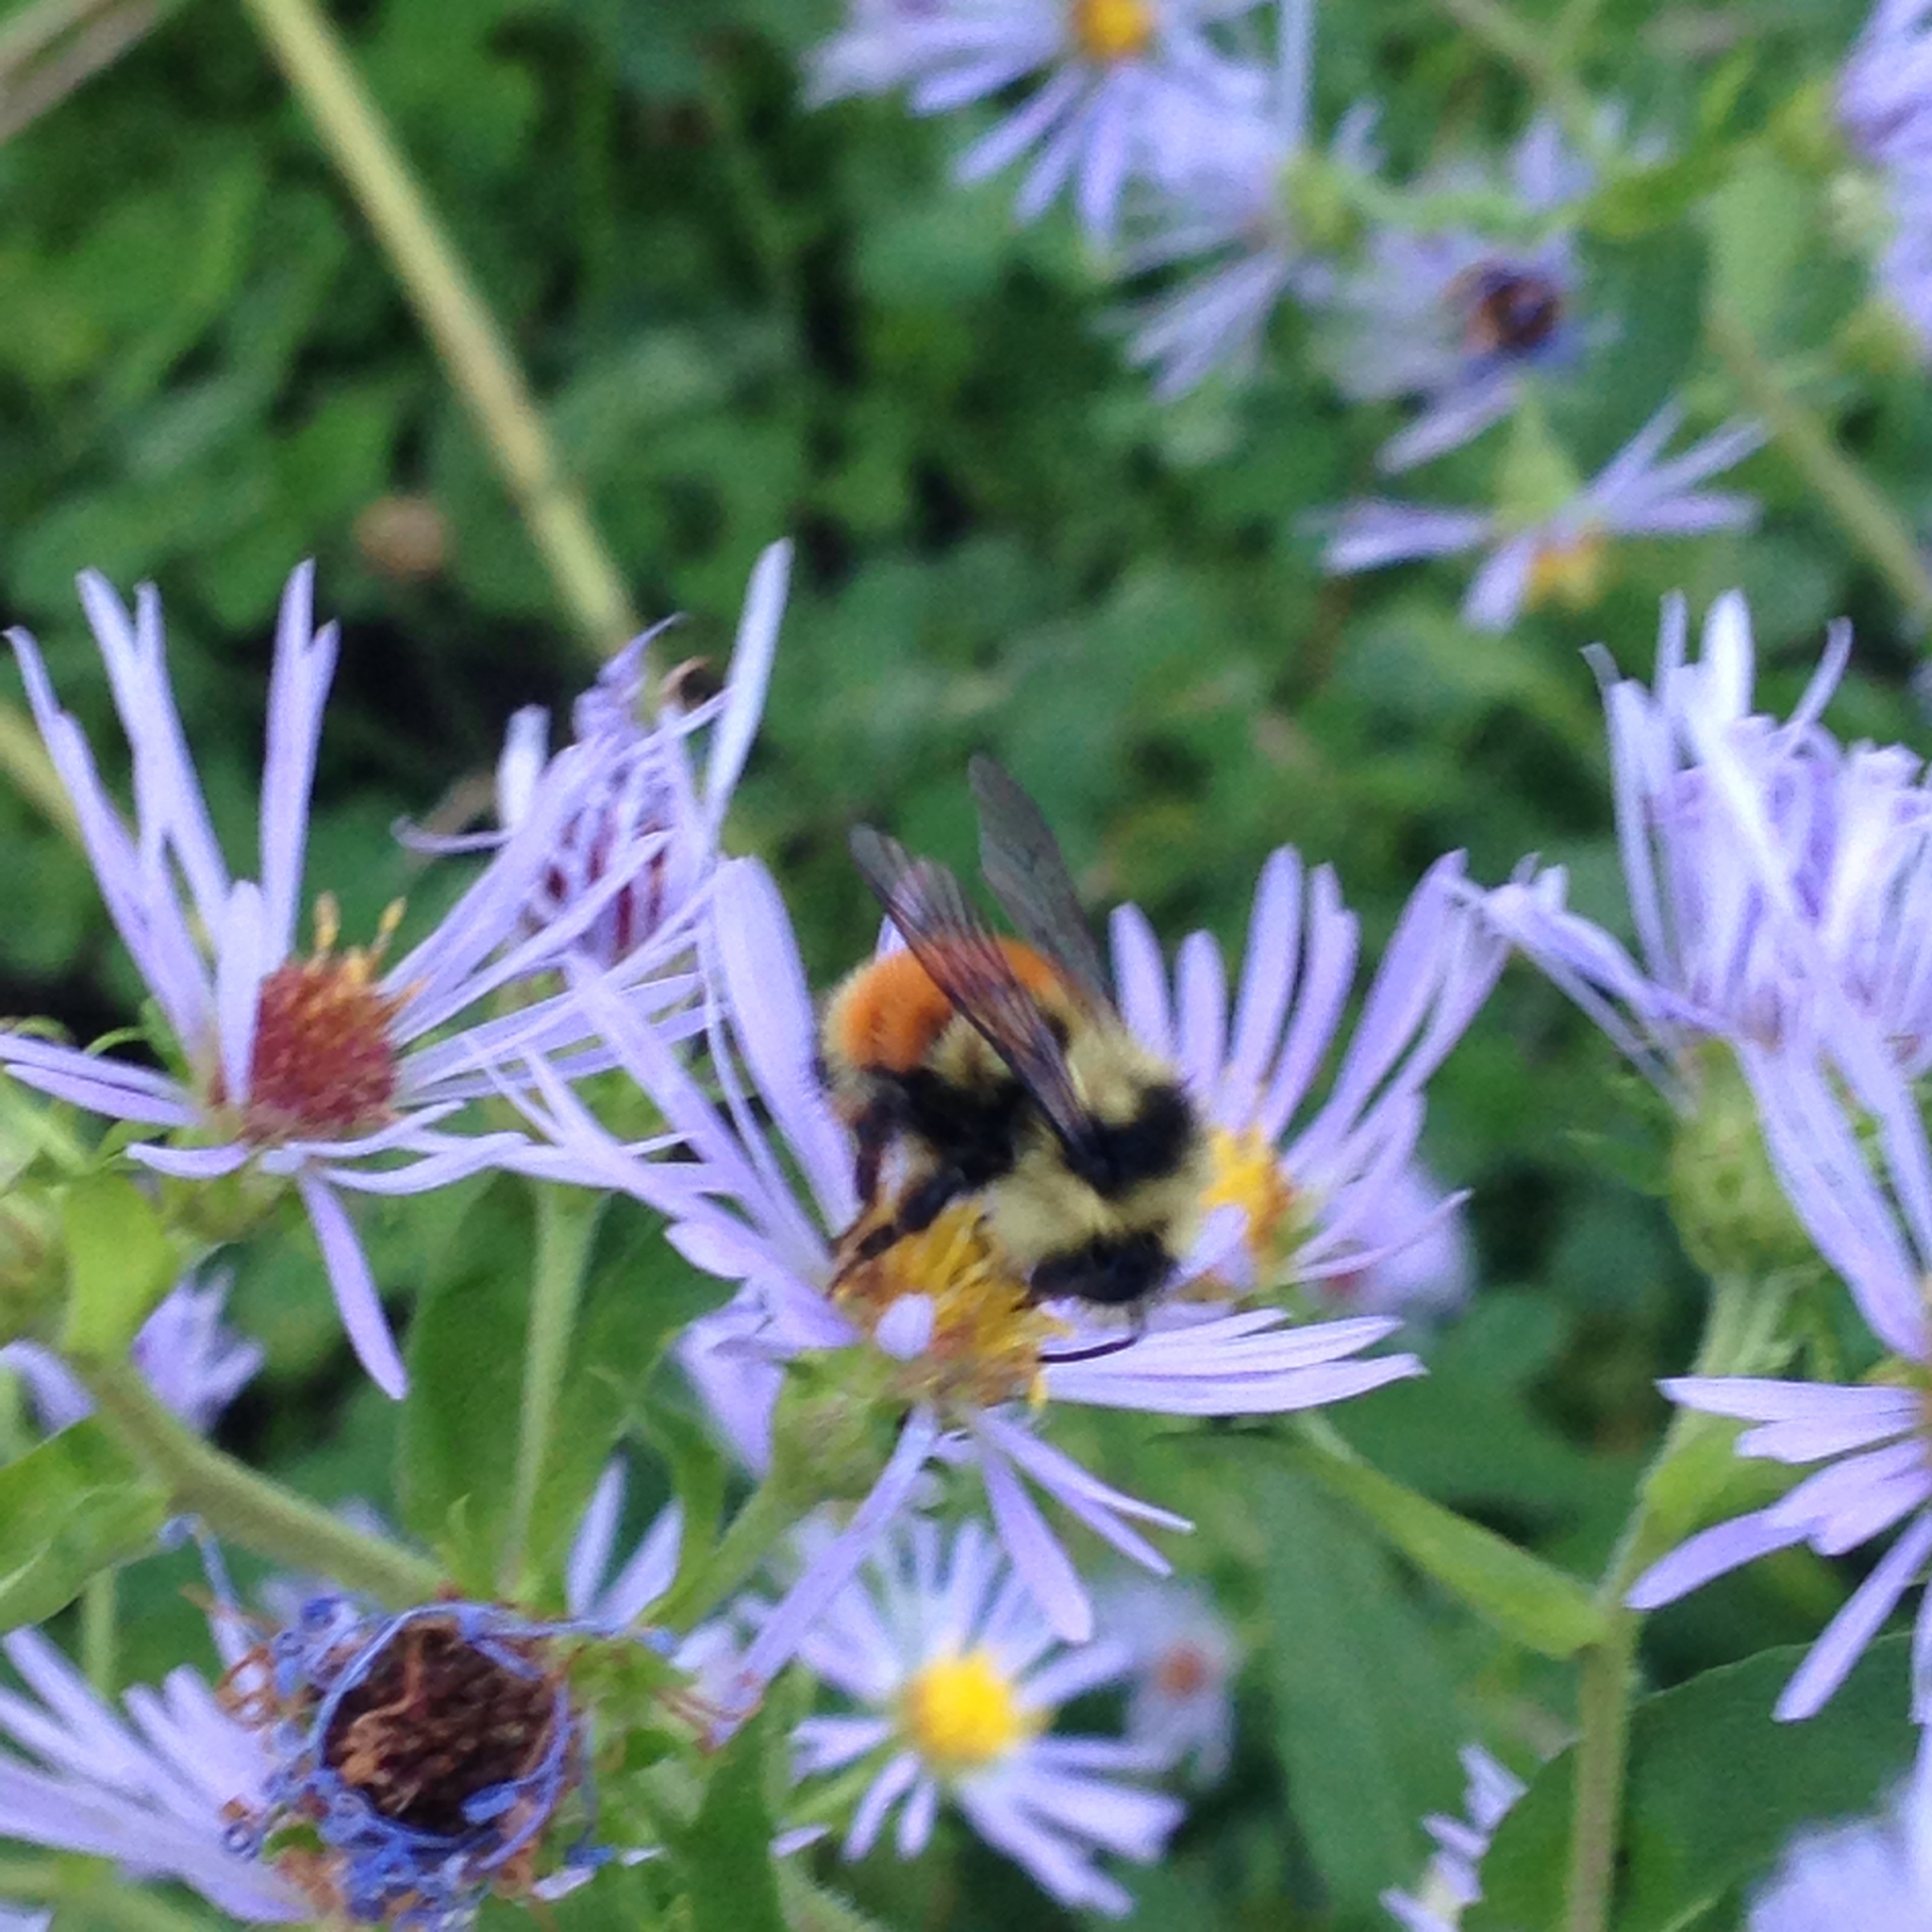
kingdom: Animalia
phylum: Arthropoda
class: Insecta
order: Hymenoptera
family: Apidae
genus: Bombus
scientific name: Bombus ternarius
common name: Tri-colored bumble bee
